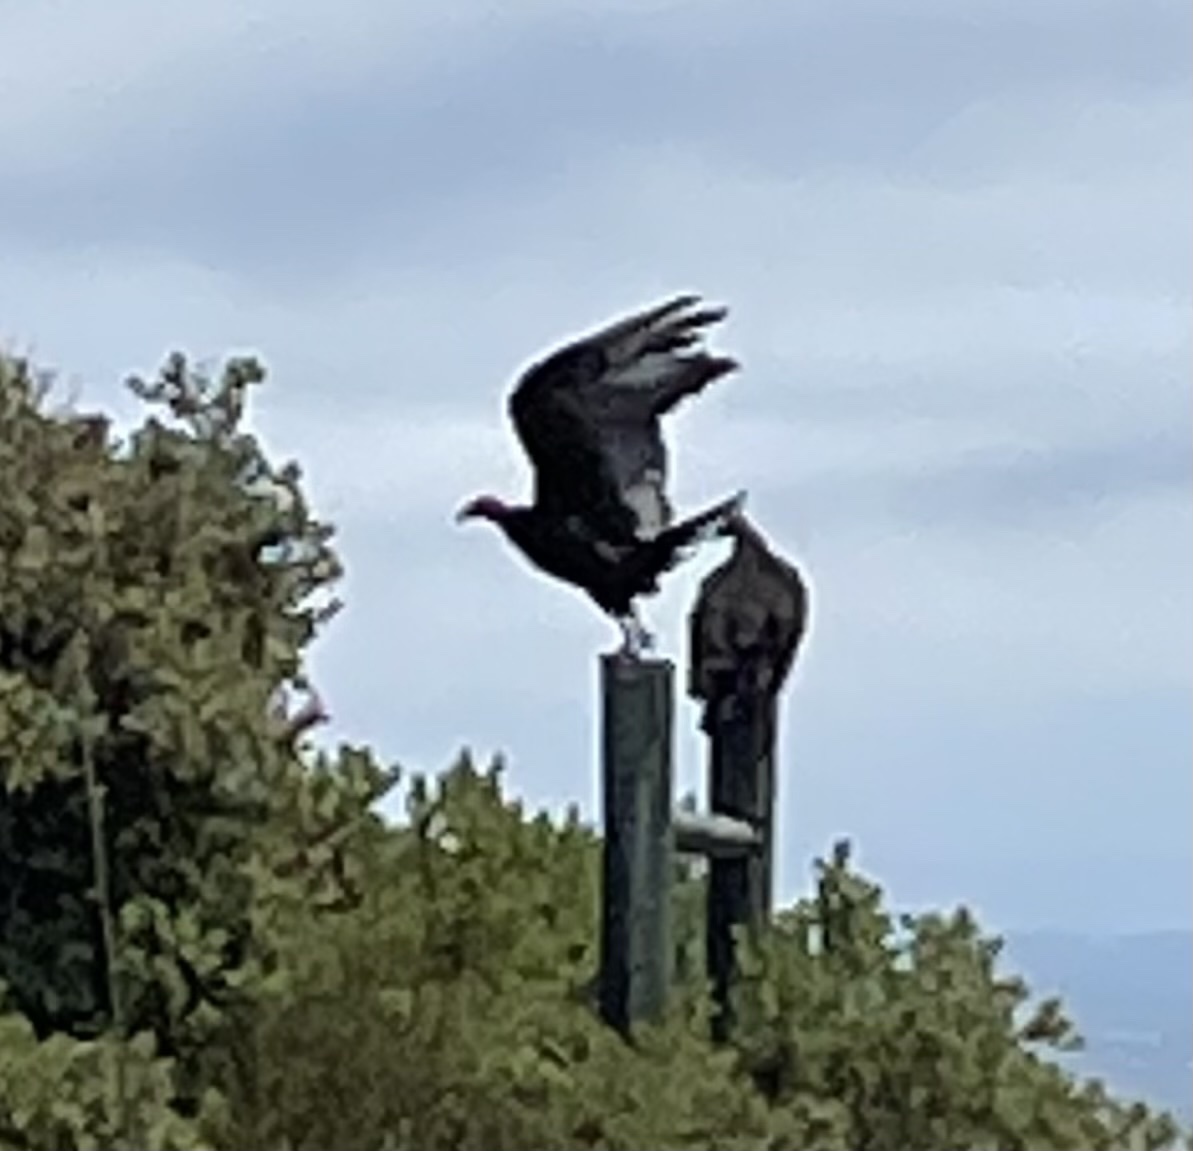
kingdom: Animalia
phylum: Chordata
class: Aves
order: Accipitriformes
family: Cathartidae
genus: Cathartes
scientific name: Cathartes aura
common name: Turkey vulture
